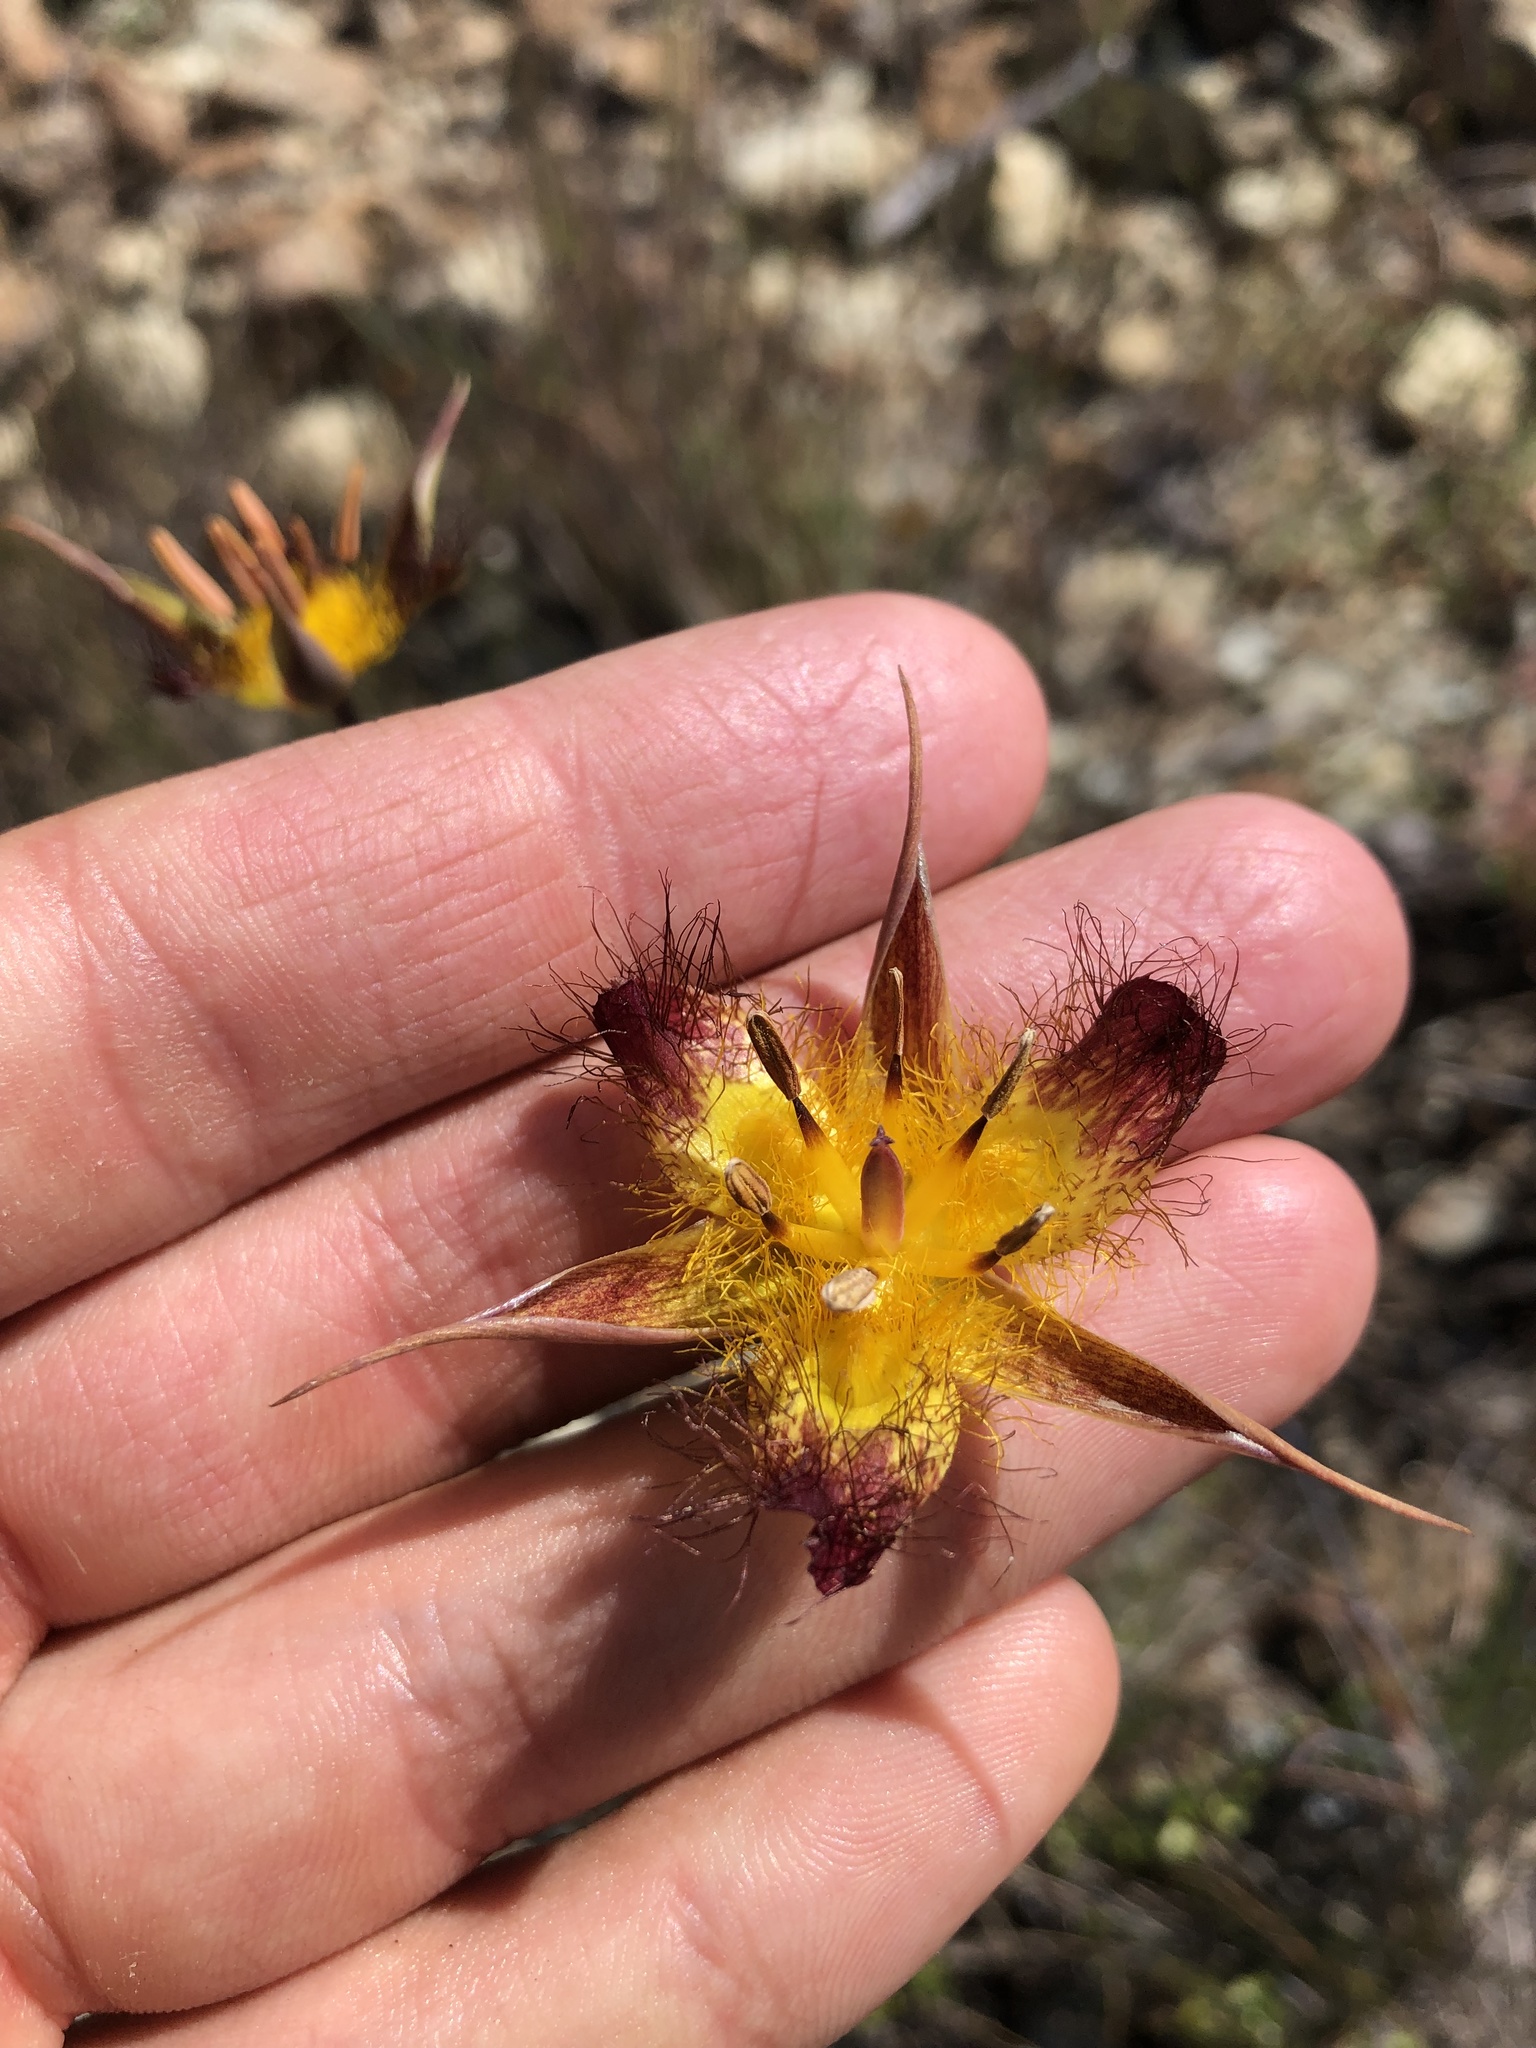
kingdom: Plantae
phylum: Tracheophyta
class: Liliopsida
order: Liliales
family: Liliaceae
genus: Calochortus
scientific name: Calochortus obispoensis
